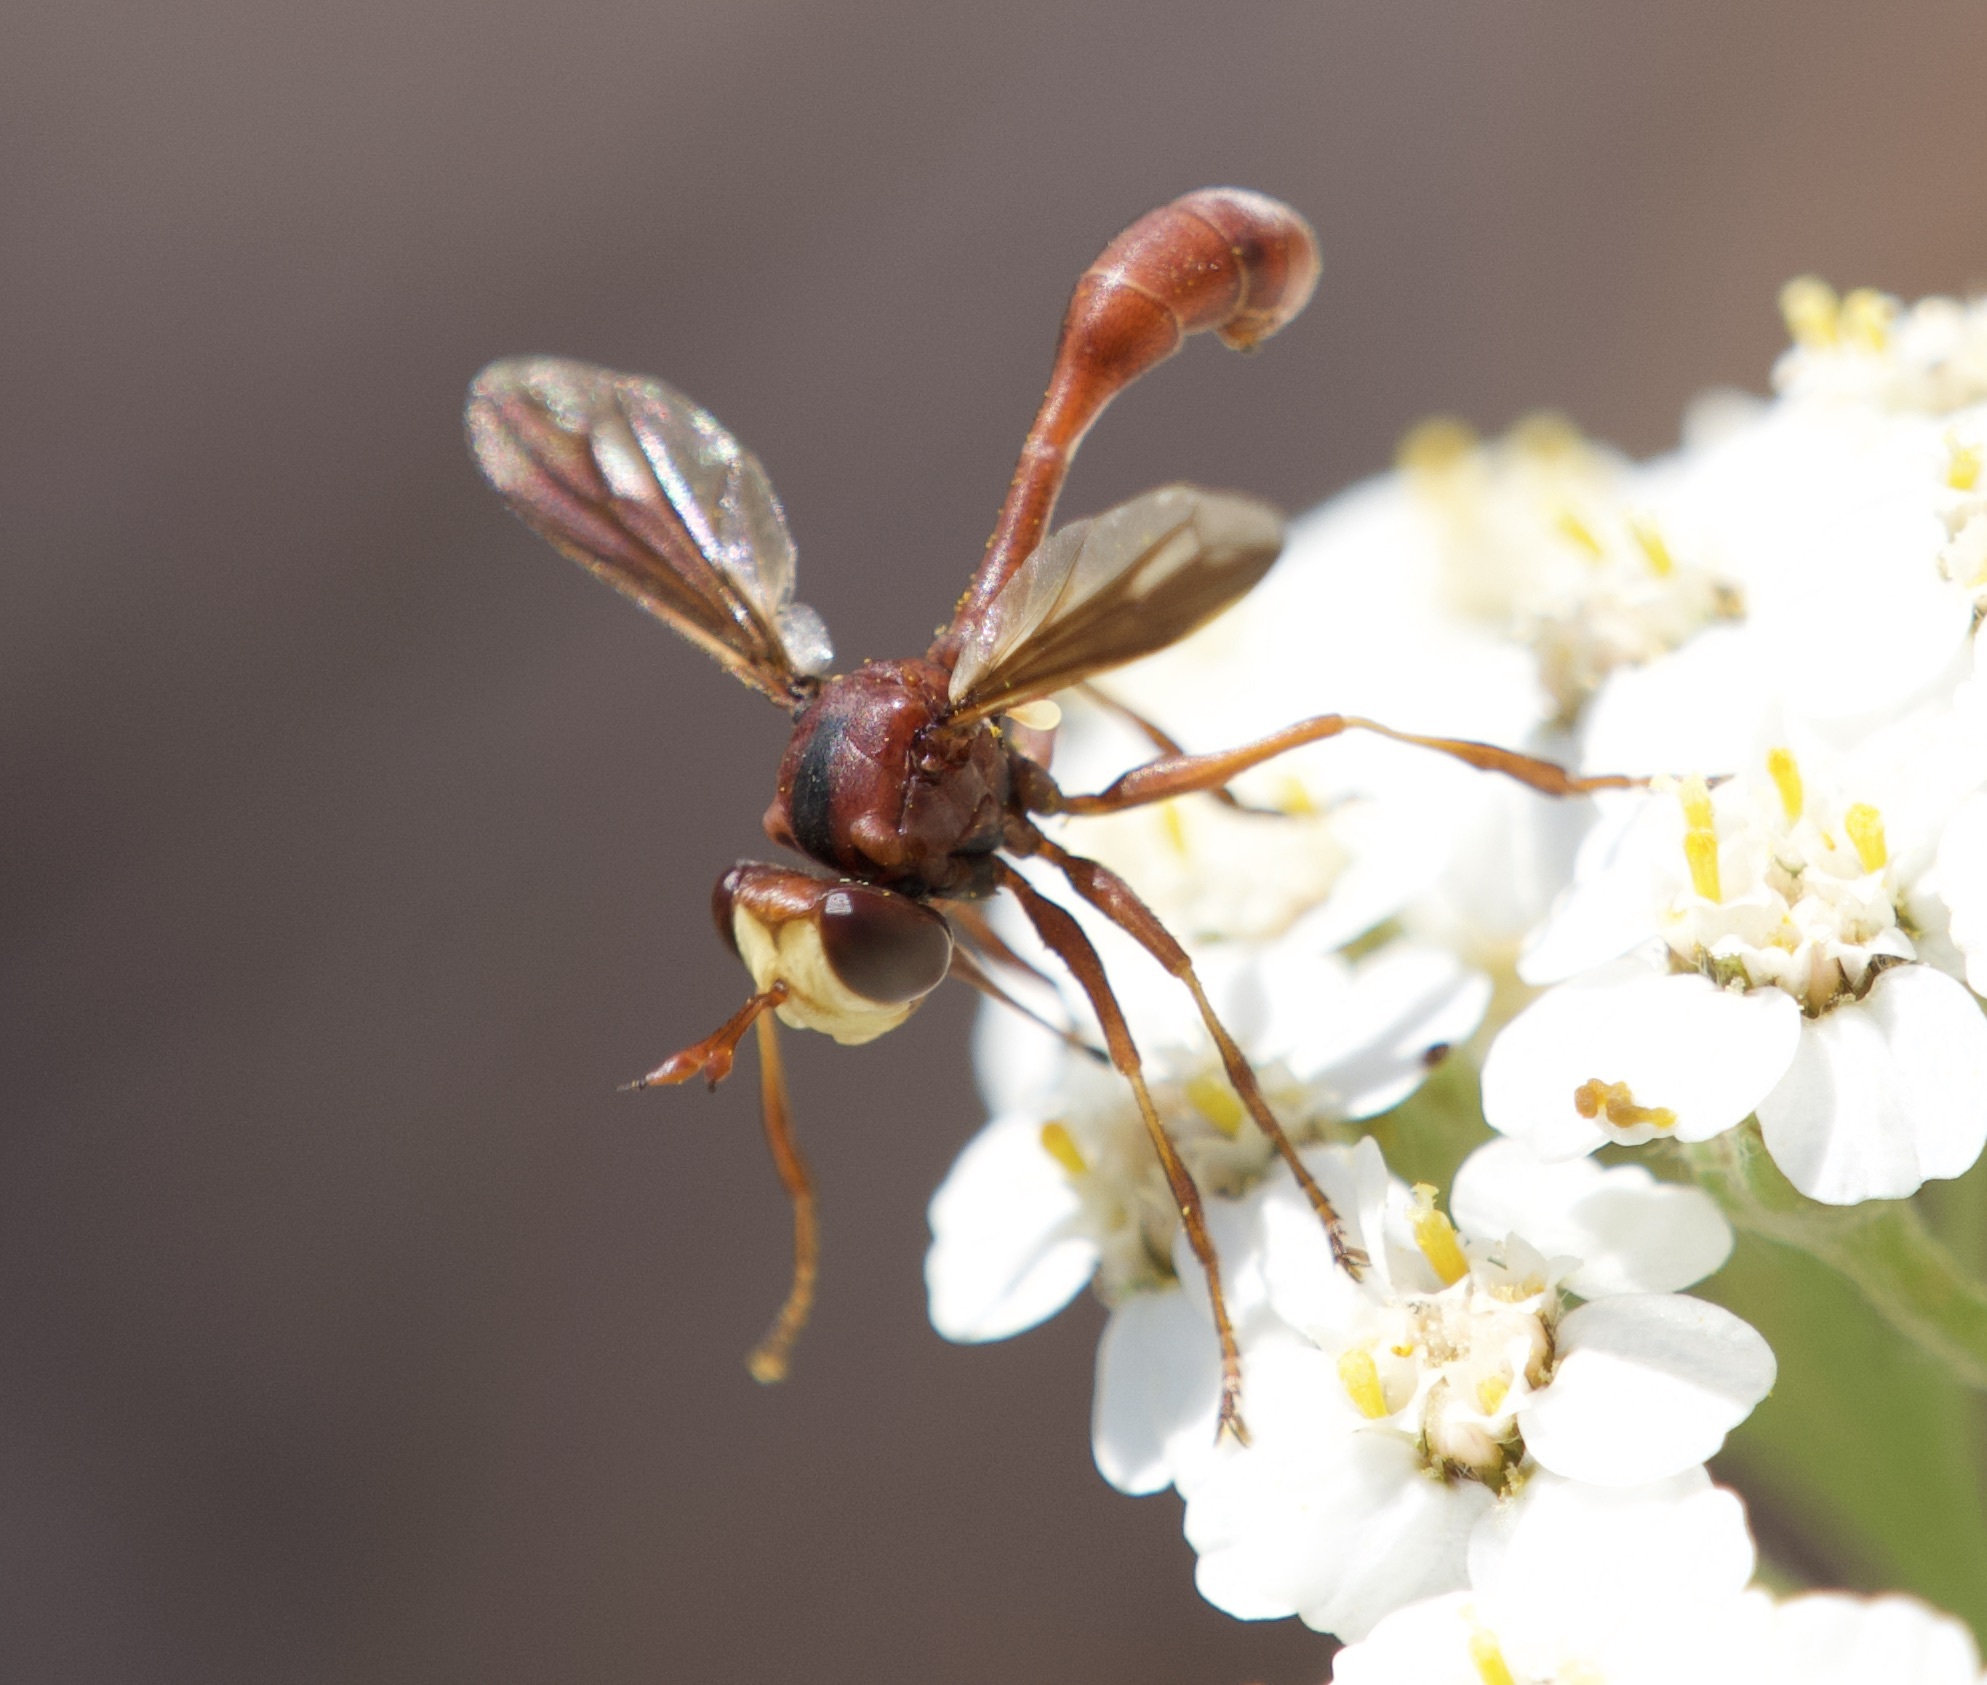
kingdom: Animalia
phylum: Arthropoda
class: Insecta
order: Diptera
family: Conopidae
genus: Physocephala
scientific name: Physocephala burgessi
